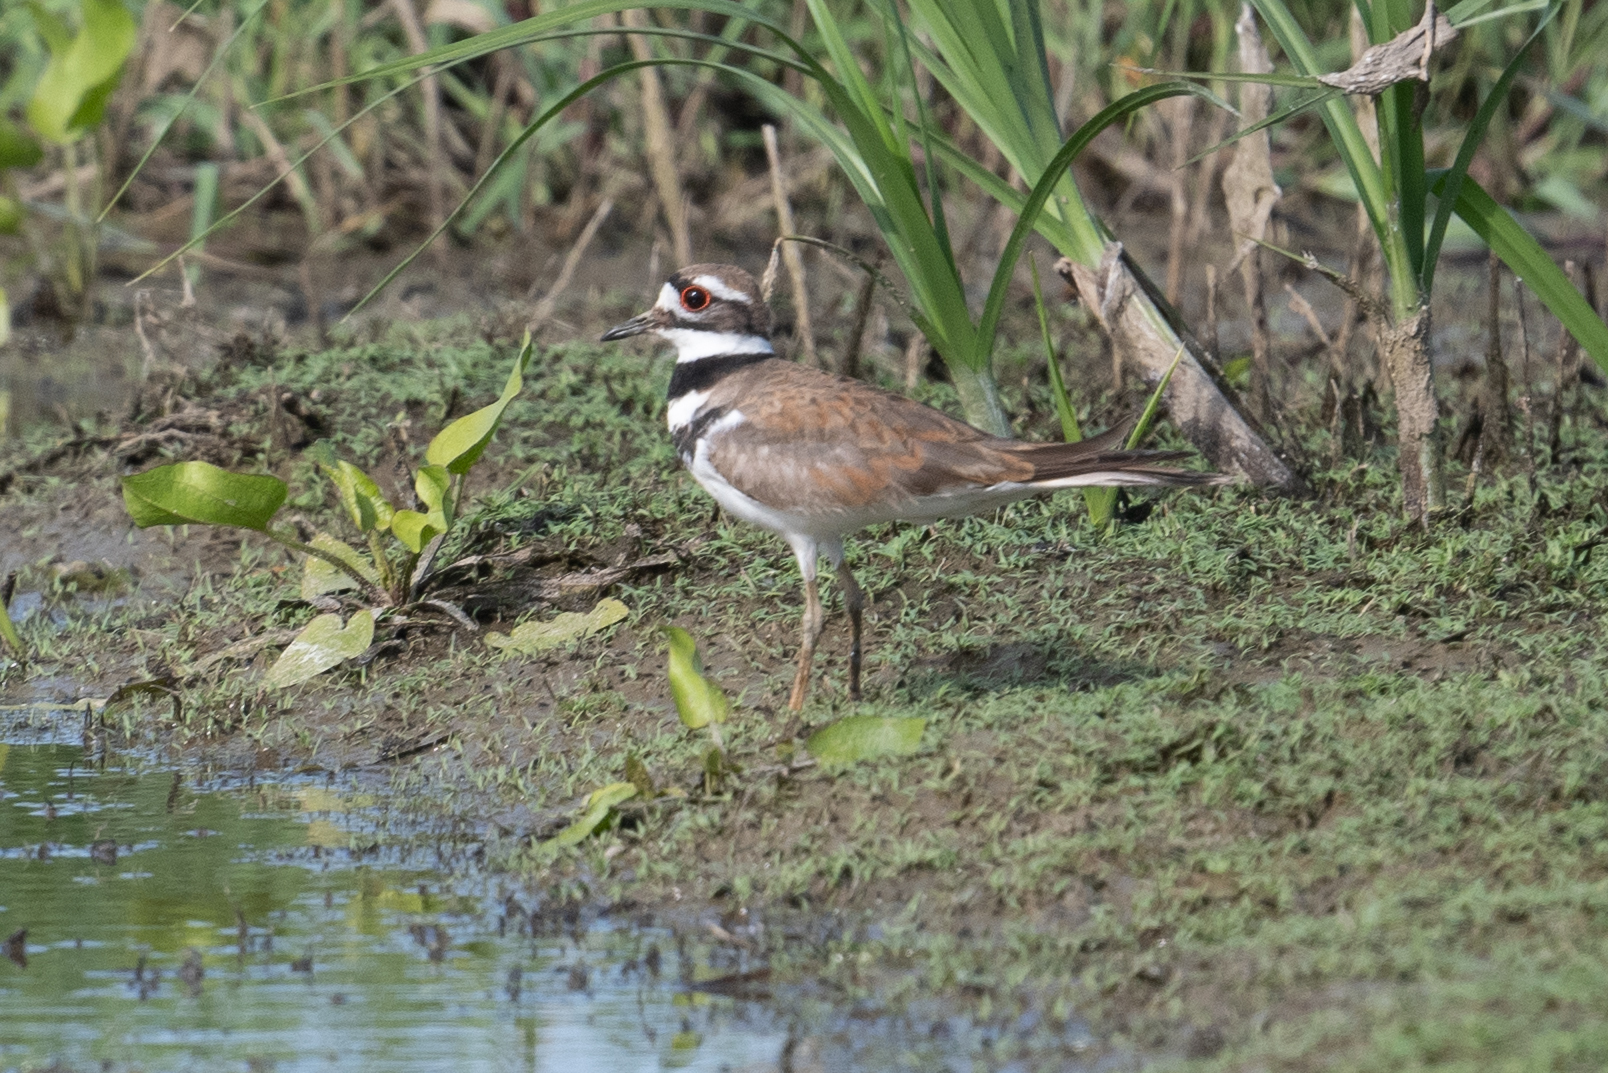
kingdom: Animalia
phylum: Chordata
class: Aves
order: Charadriiformes
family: Charadriidae
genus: Charadrius
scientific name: Charadrius vociferus
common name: Killdeer
